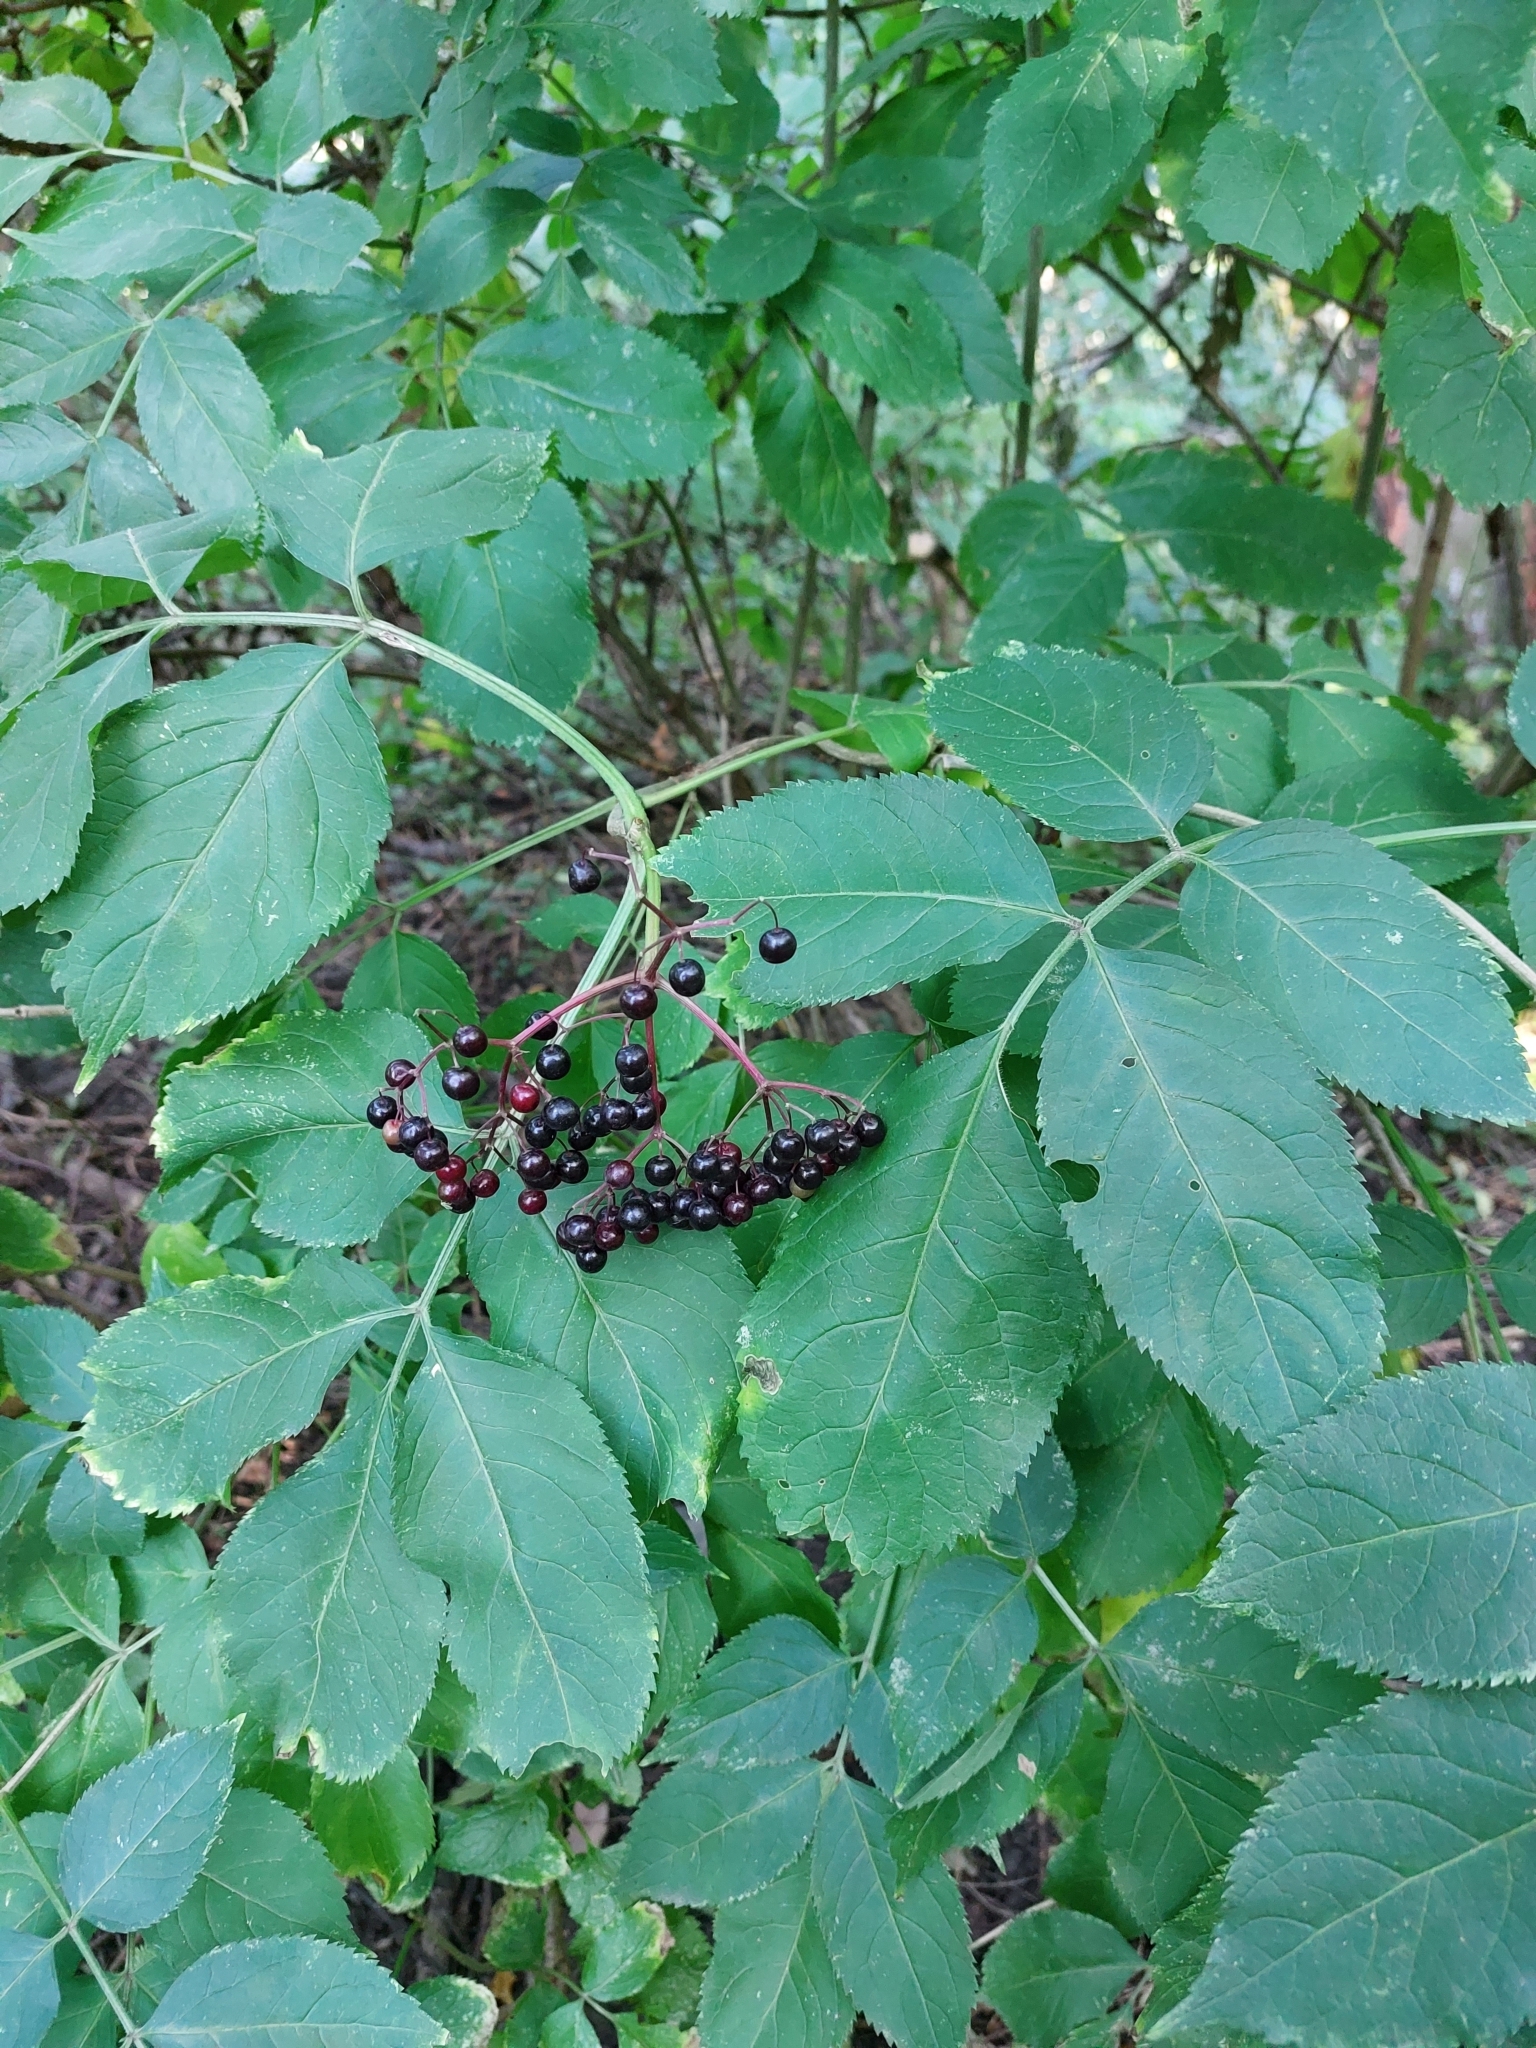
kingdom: Plantae
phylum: Tracheophyta
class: Magnoliopsida
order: Dipsacales
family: Viburnaceae
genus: Sambucus
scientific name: Sambucus nigra
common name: Elder
